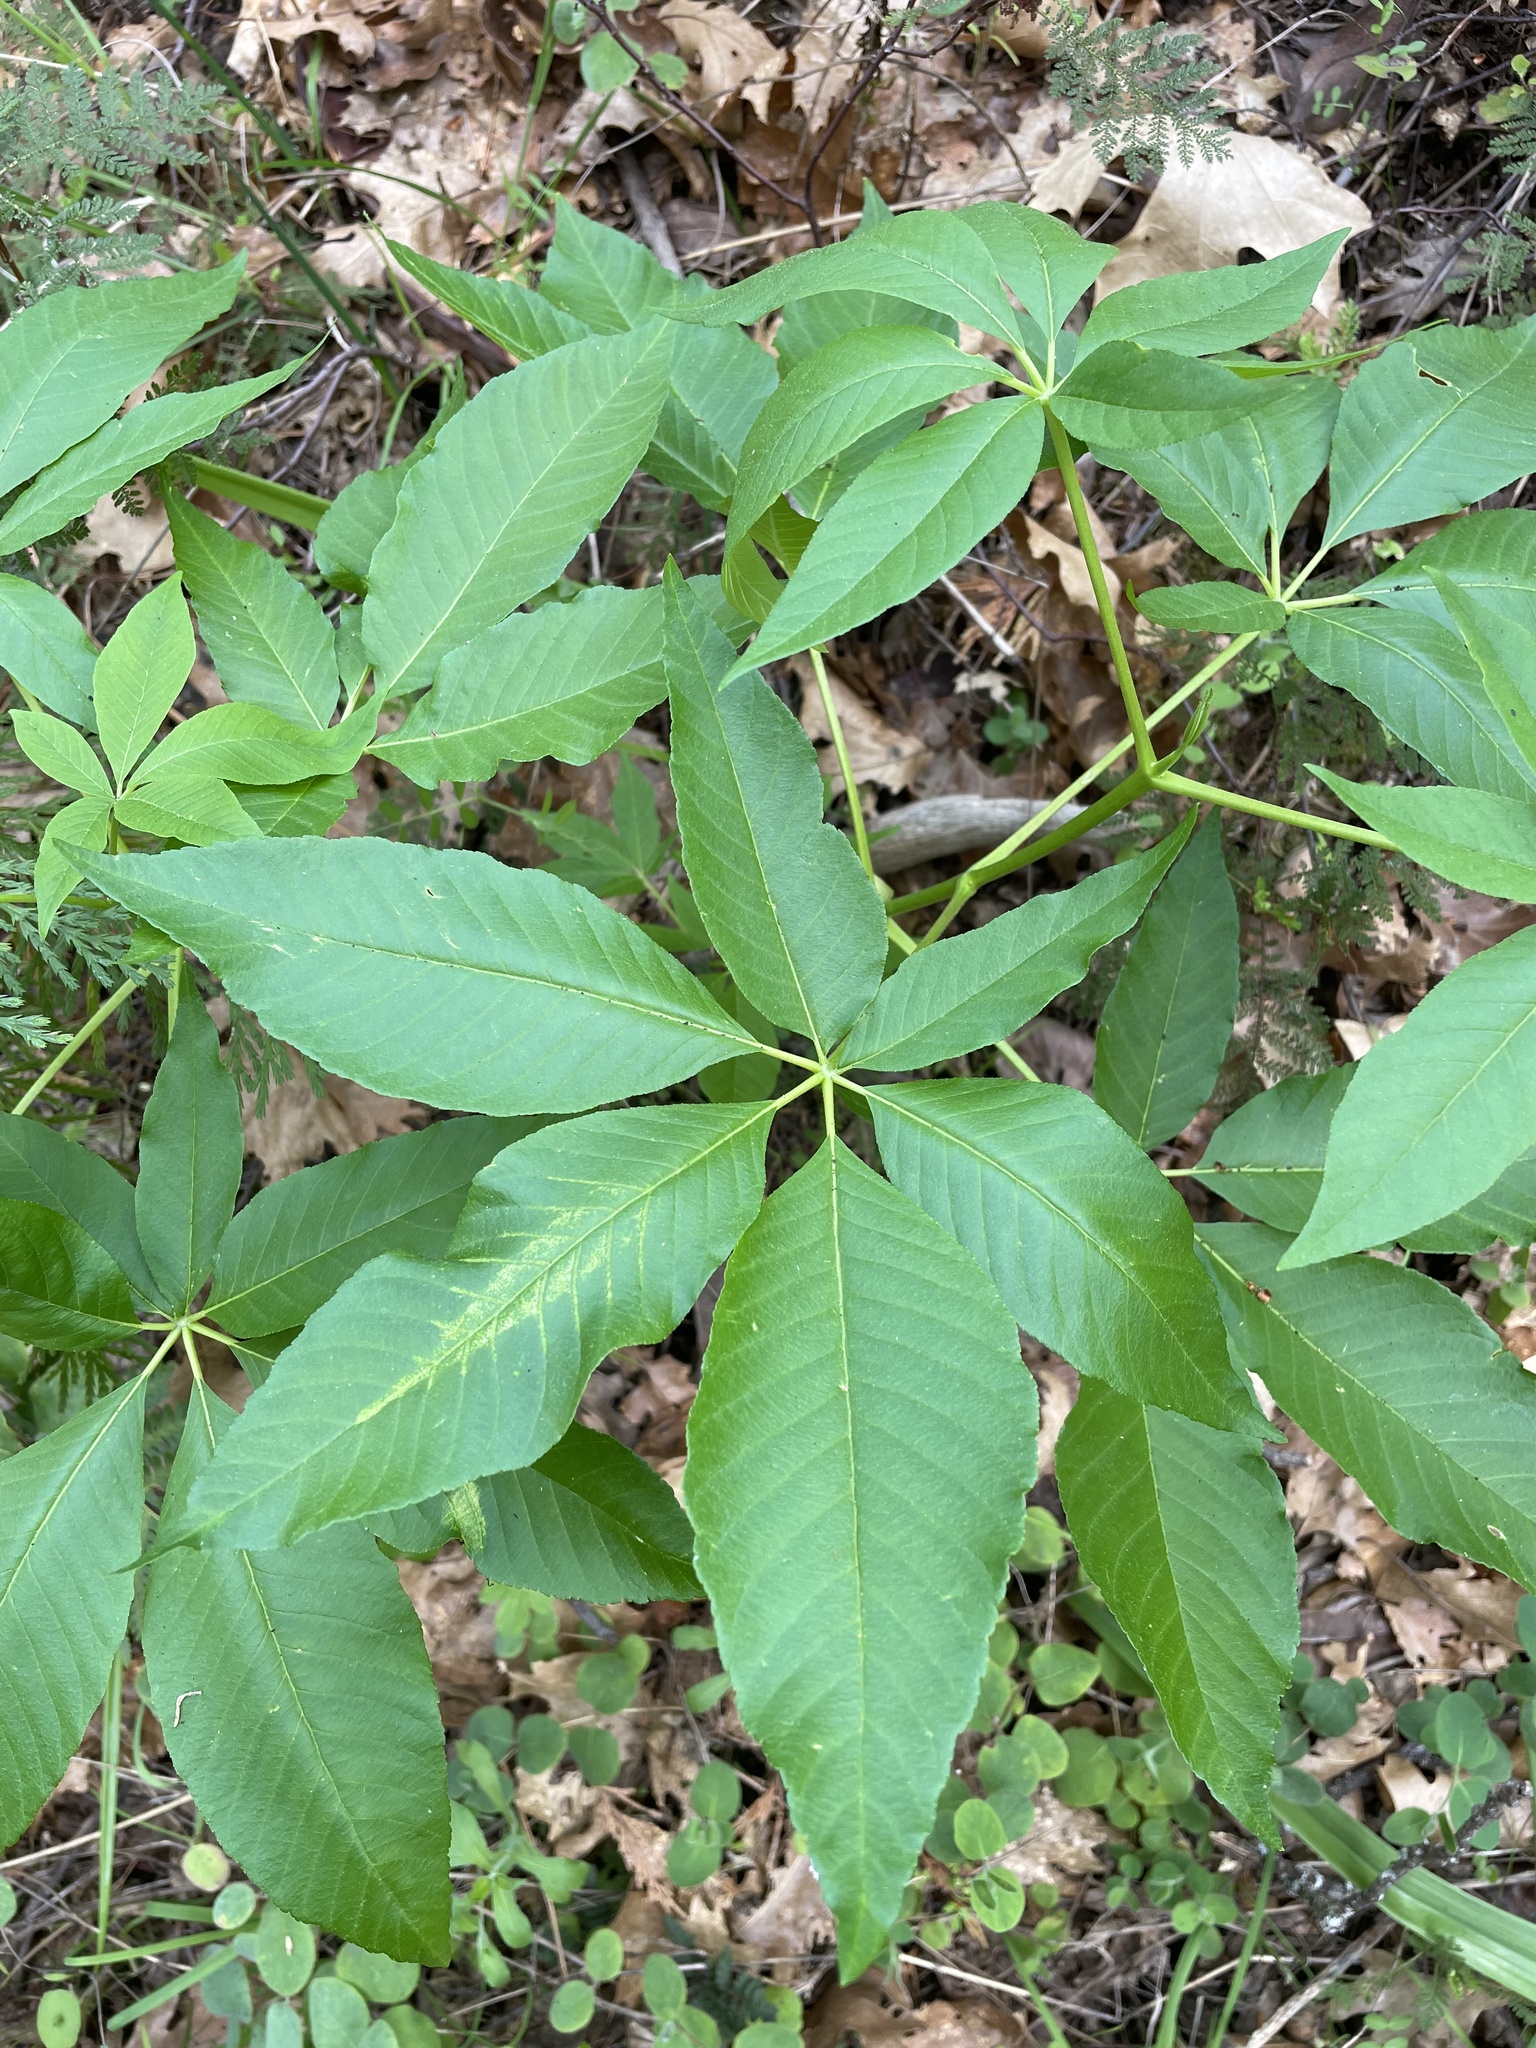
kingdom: Plantae
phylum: Tracheophyta
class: Magnoliopsida
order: Sapindales
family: Sapindaceae
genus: Aesculus
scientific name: Aesculus californica
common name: California buckeye
